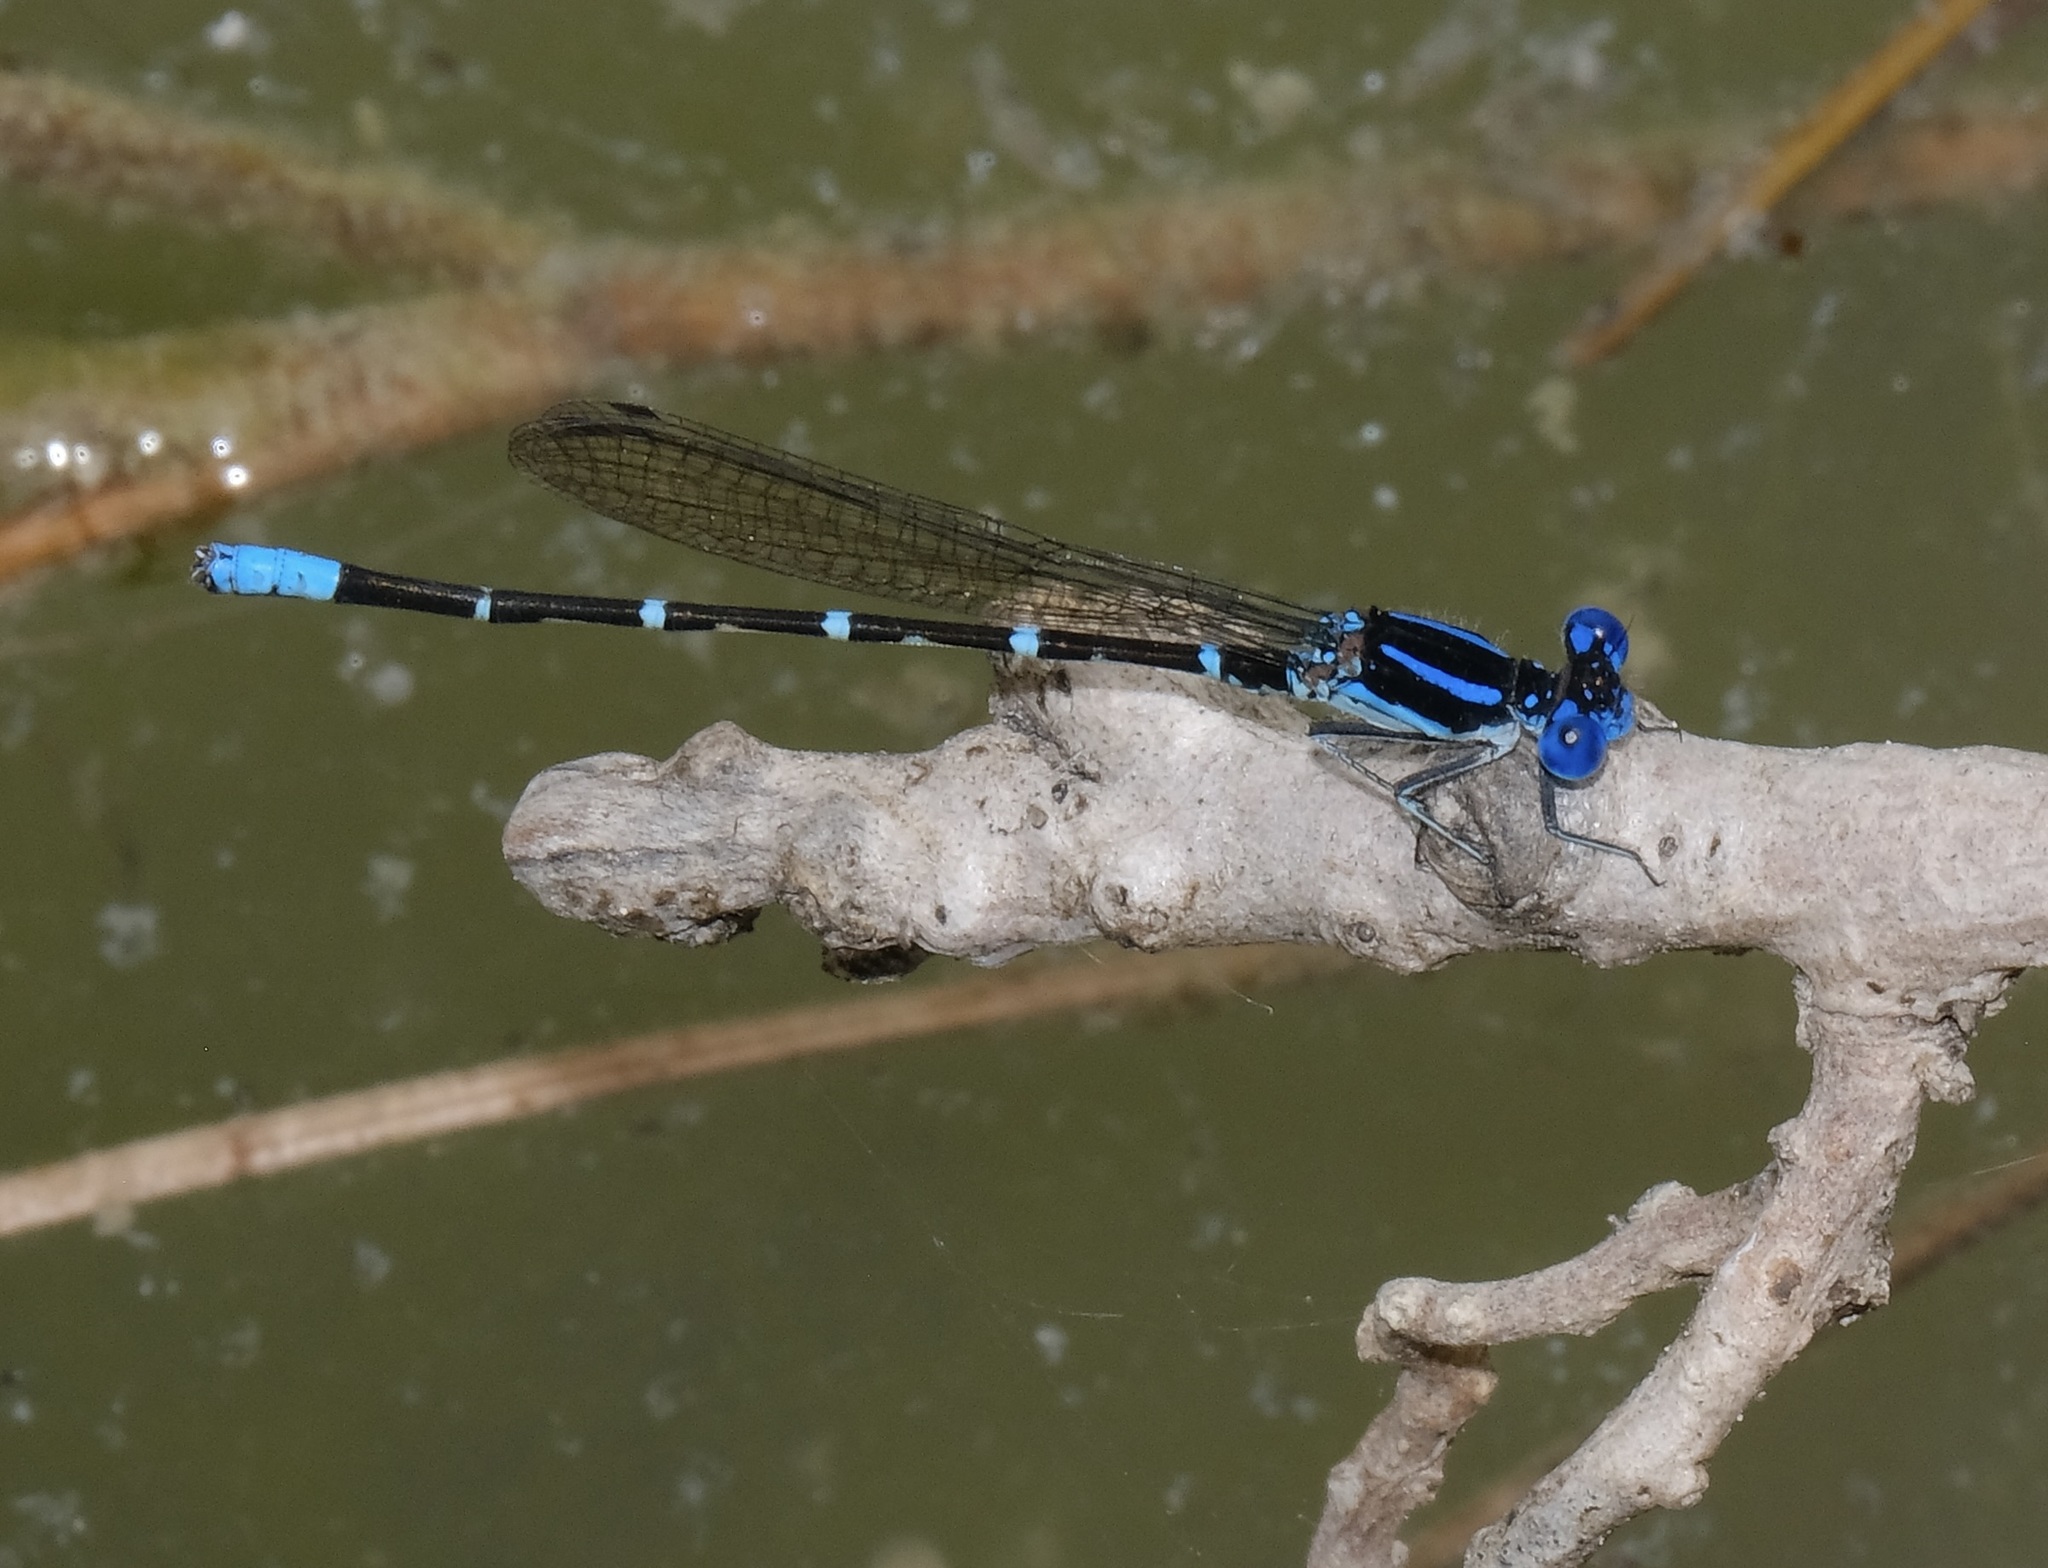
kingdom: Animalia
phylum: Arthropoda
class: Insecta
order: Odonata
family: Coenagrionidae
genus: Argia
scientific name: Argia sedula
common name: Blue-ringed dancer
